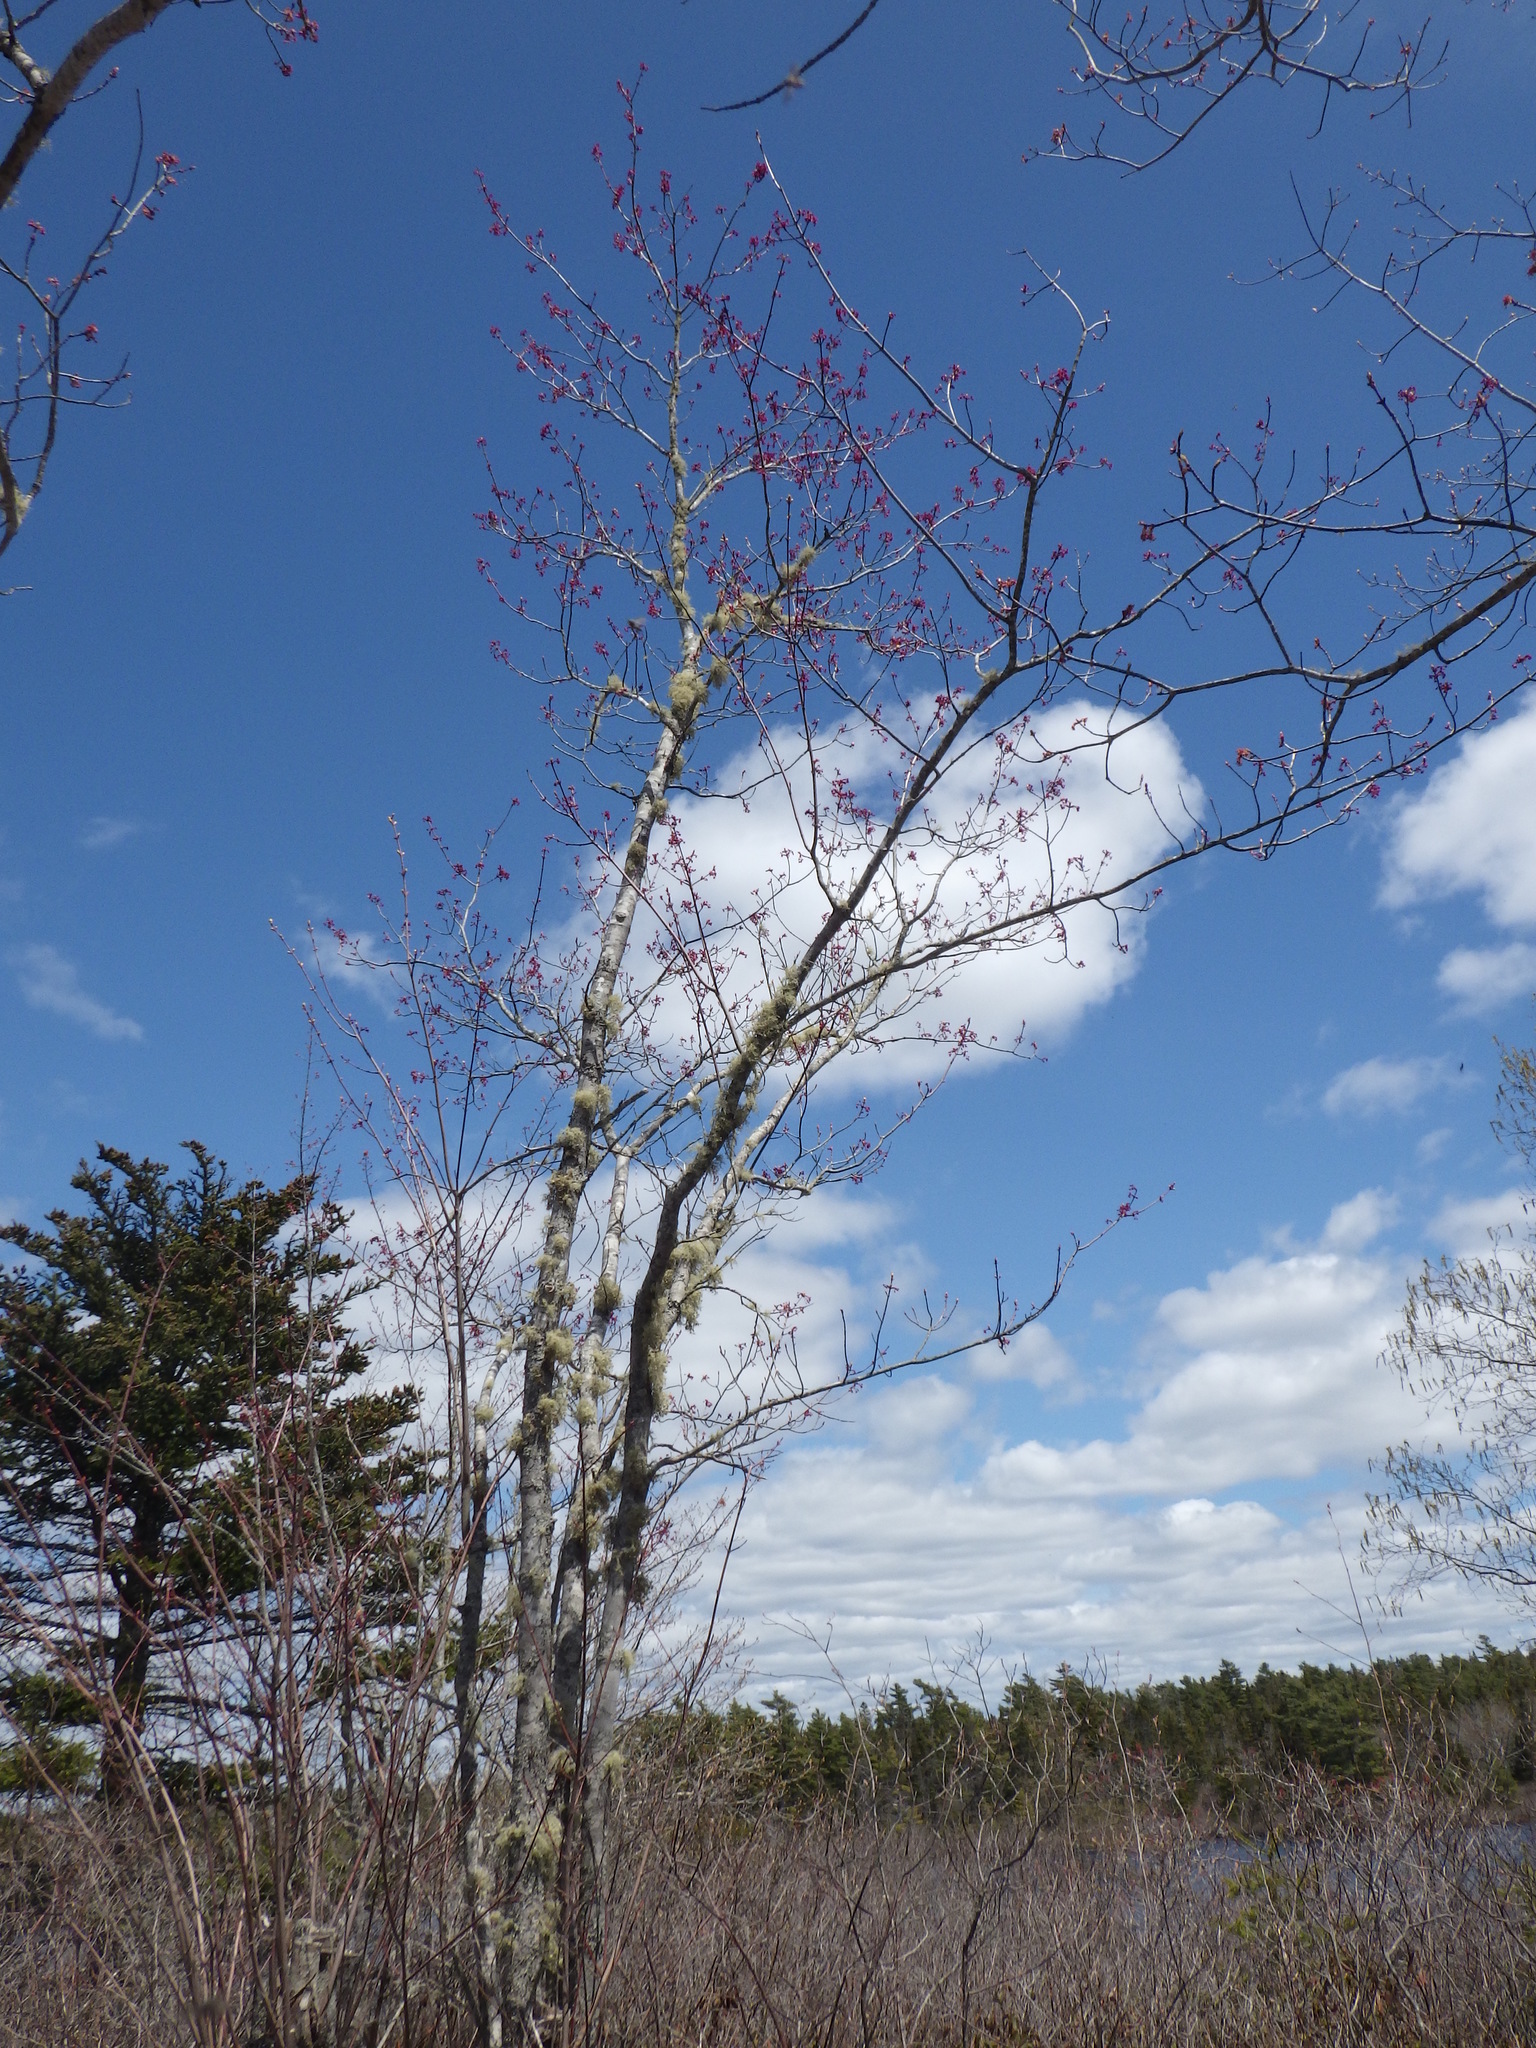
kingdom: Plantae
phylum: Tracheophyta
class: Magnoliopsida
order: Sapindales
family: Sapindaceae
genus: Acer
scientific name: Acer rubrum
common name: Red maple
